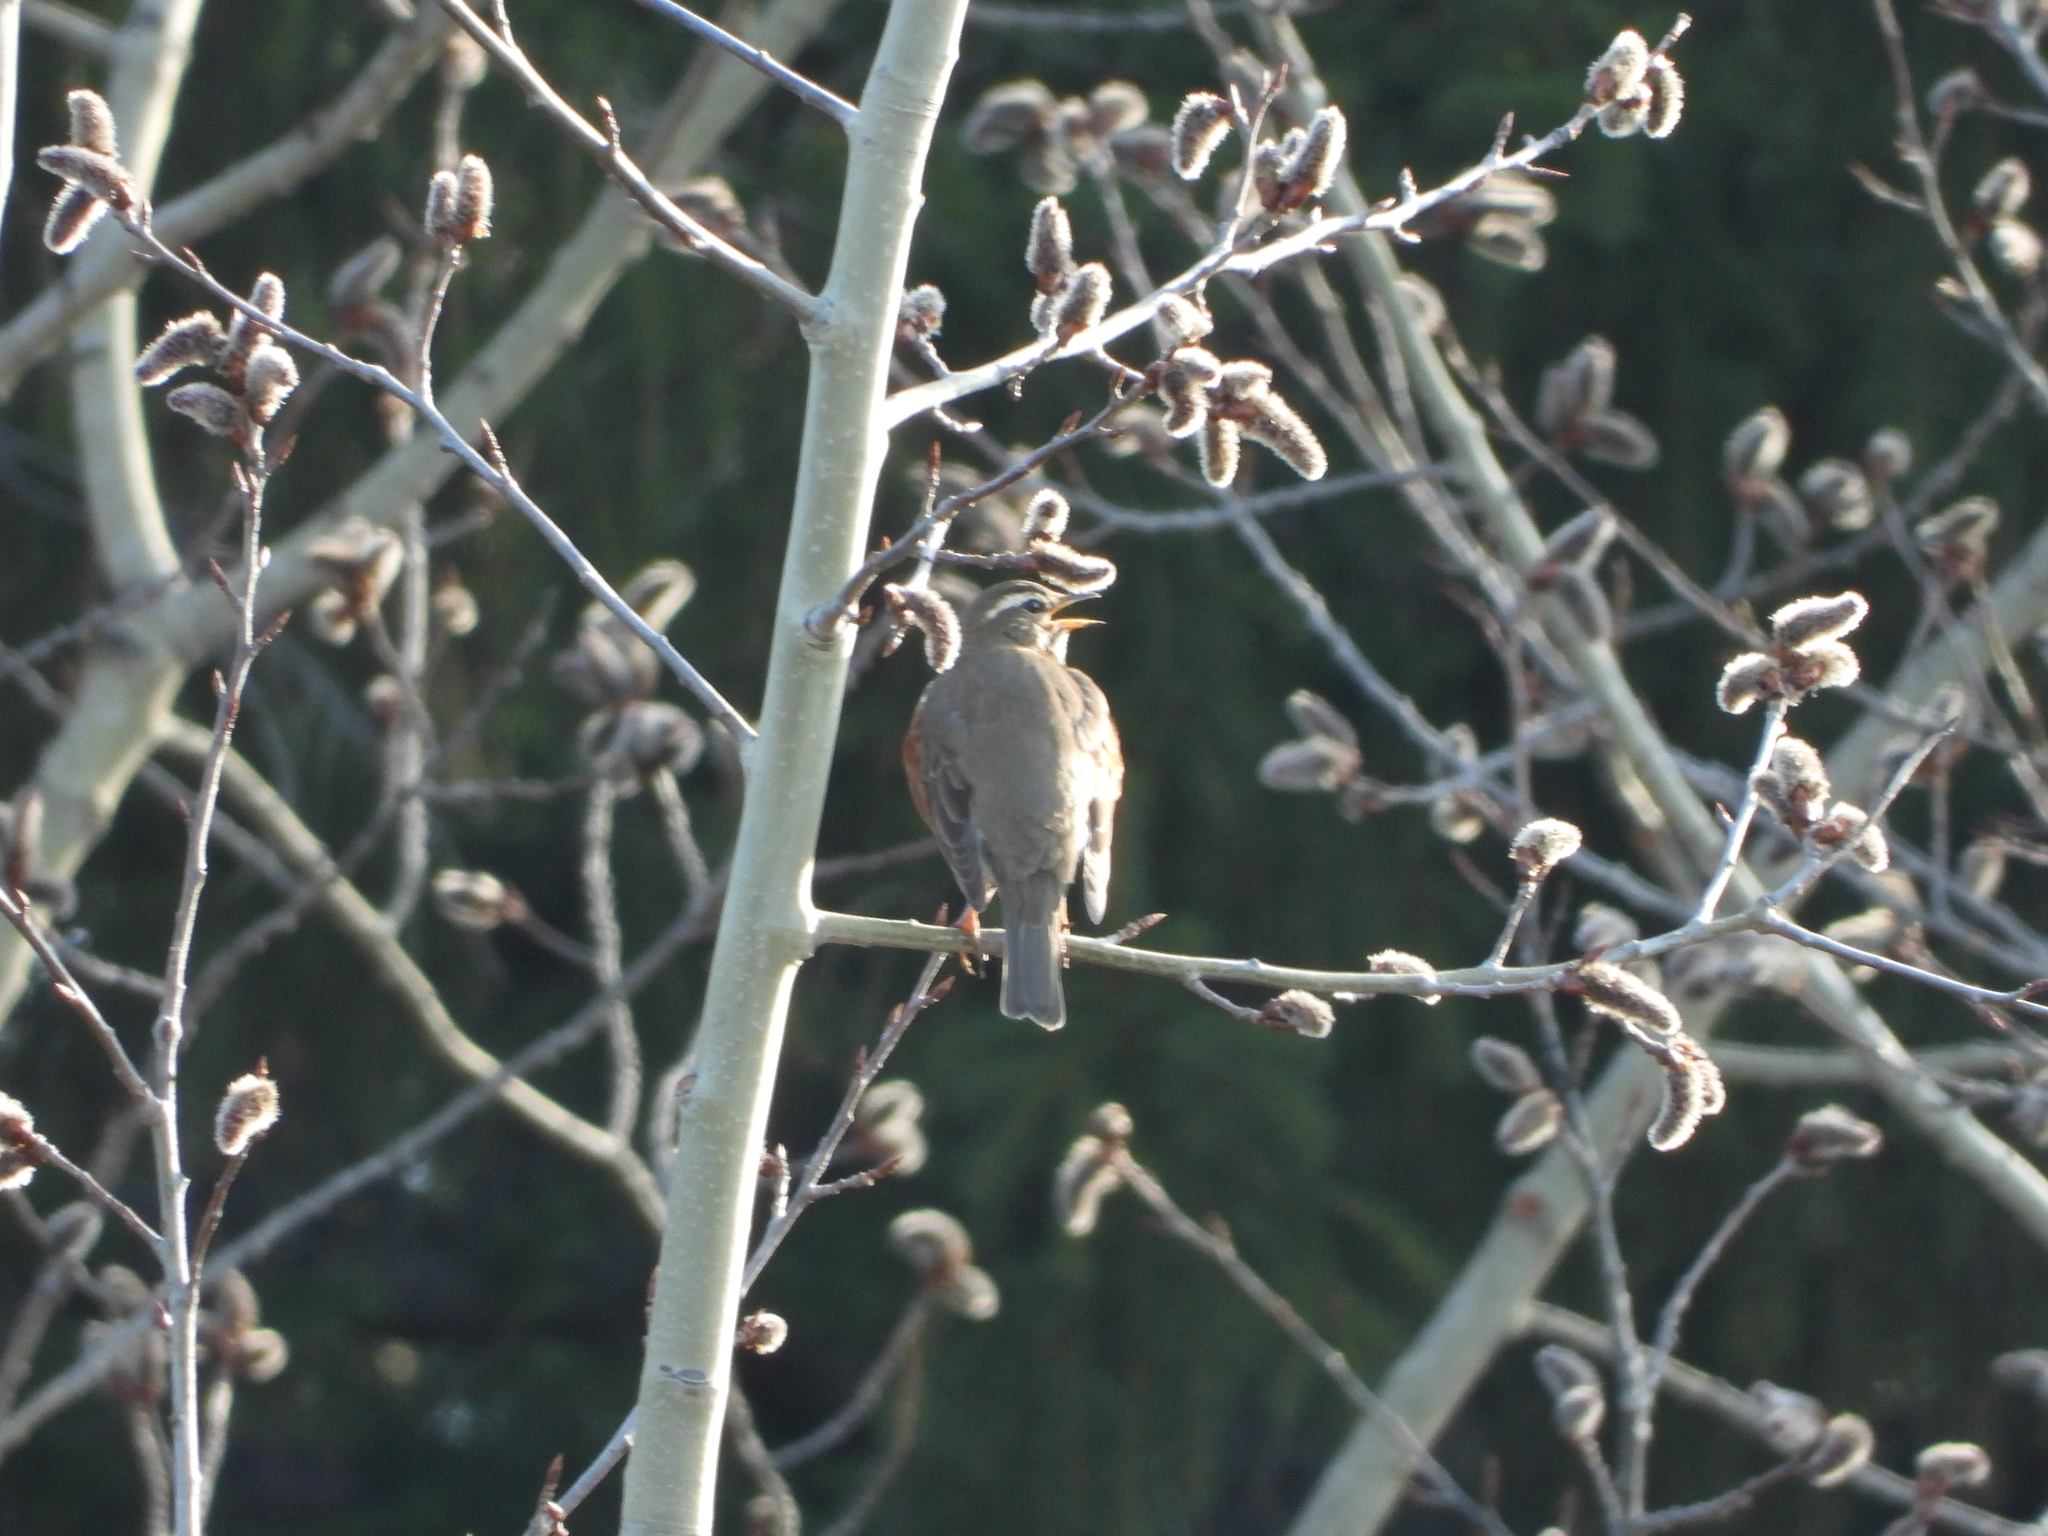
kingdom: Animalia
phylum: Chordata
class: Aves
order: Passeriformes
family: Turdidae
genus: Turdus
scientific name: Turdus iliacus
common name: Redwing
